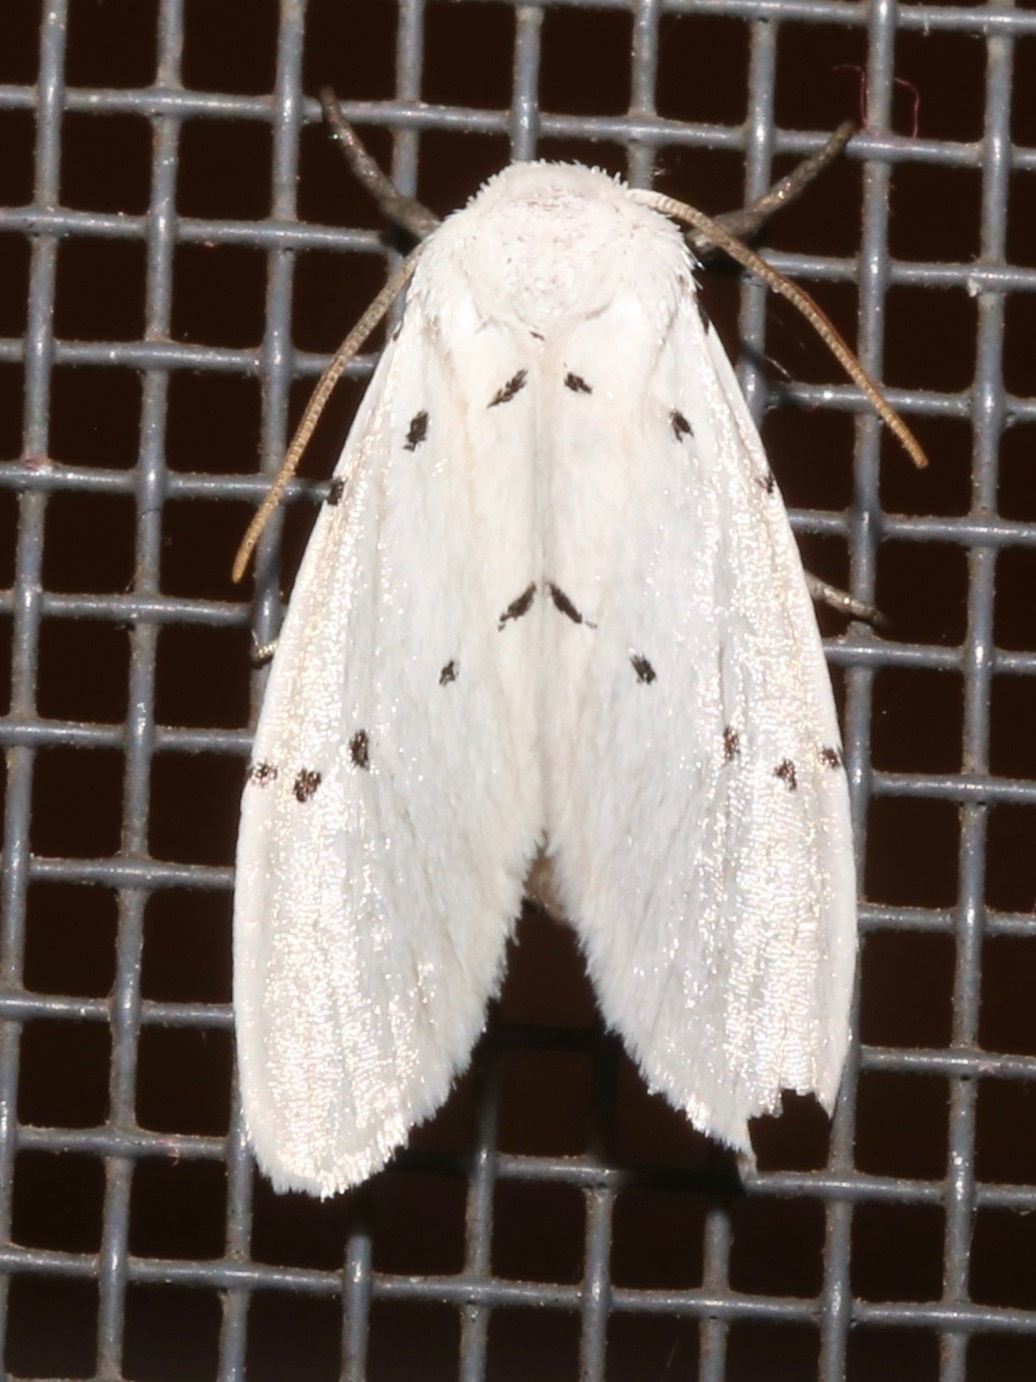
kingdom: Animalia
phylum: Arthropoda
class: Insecta
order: Lepidoptera
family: Noctuidae
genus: Homolagoa
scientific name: Homolagoa grotelliformis
